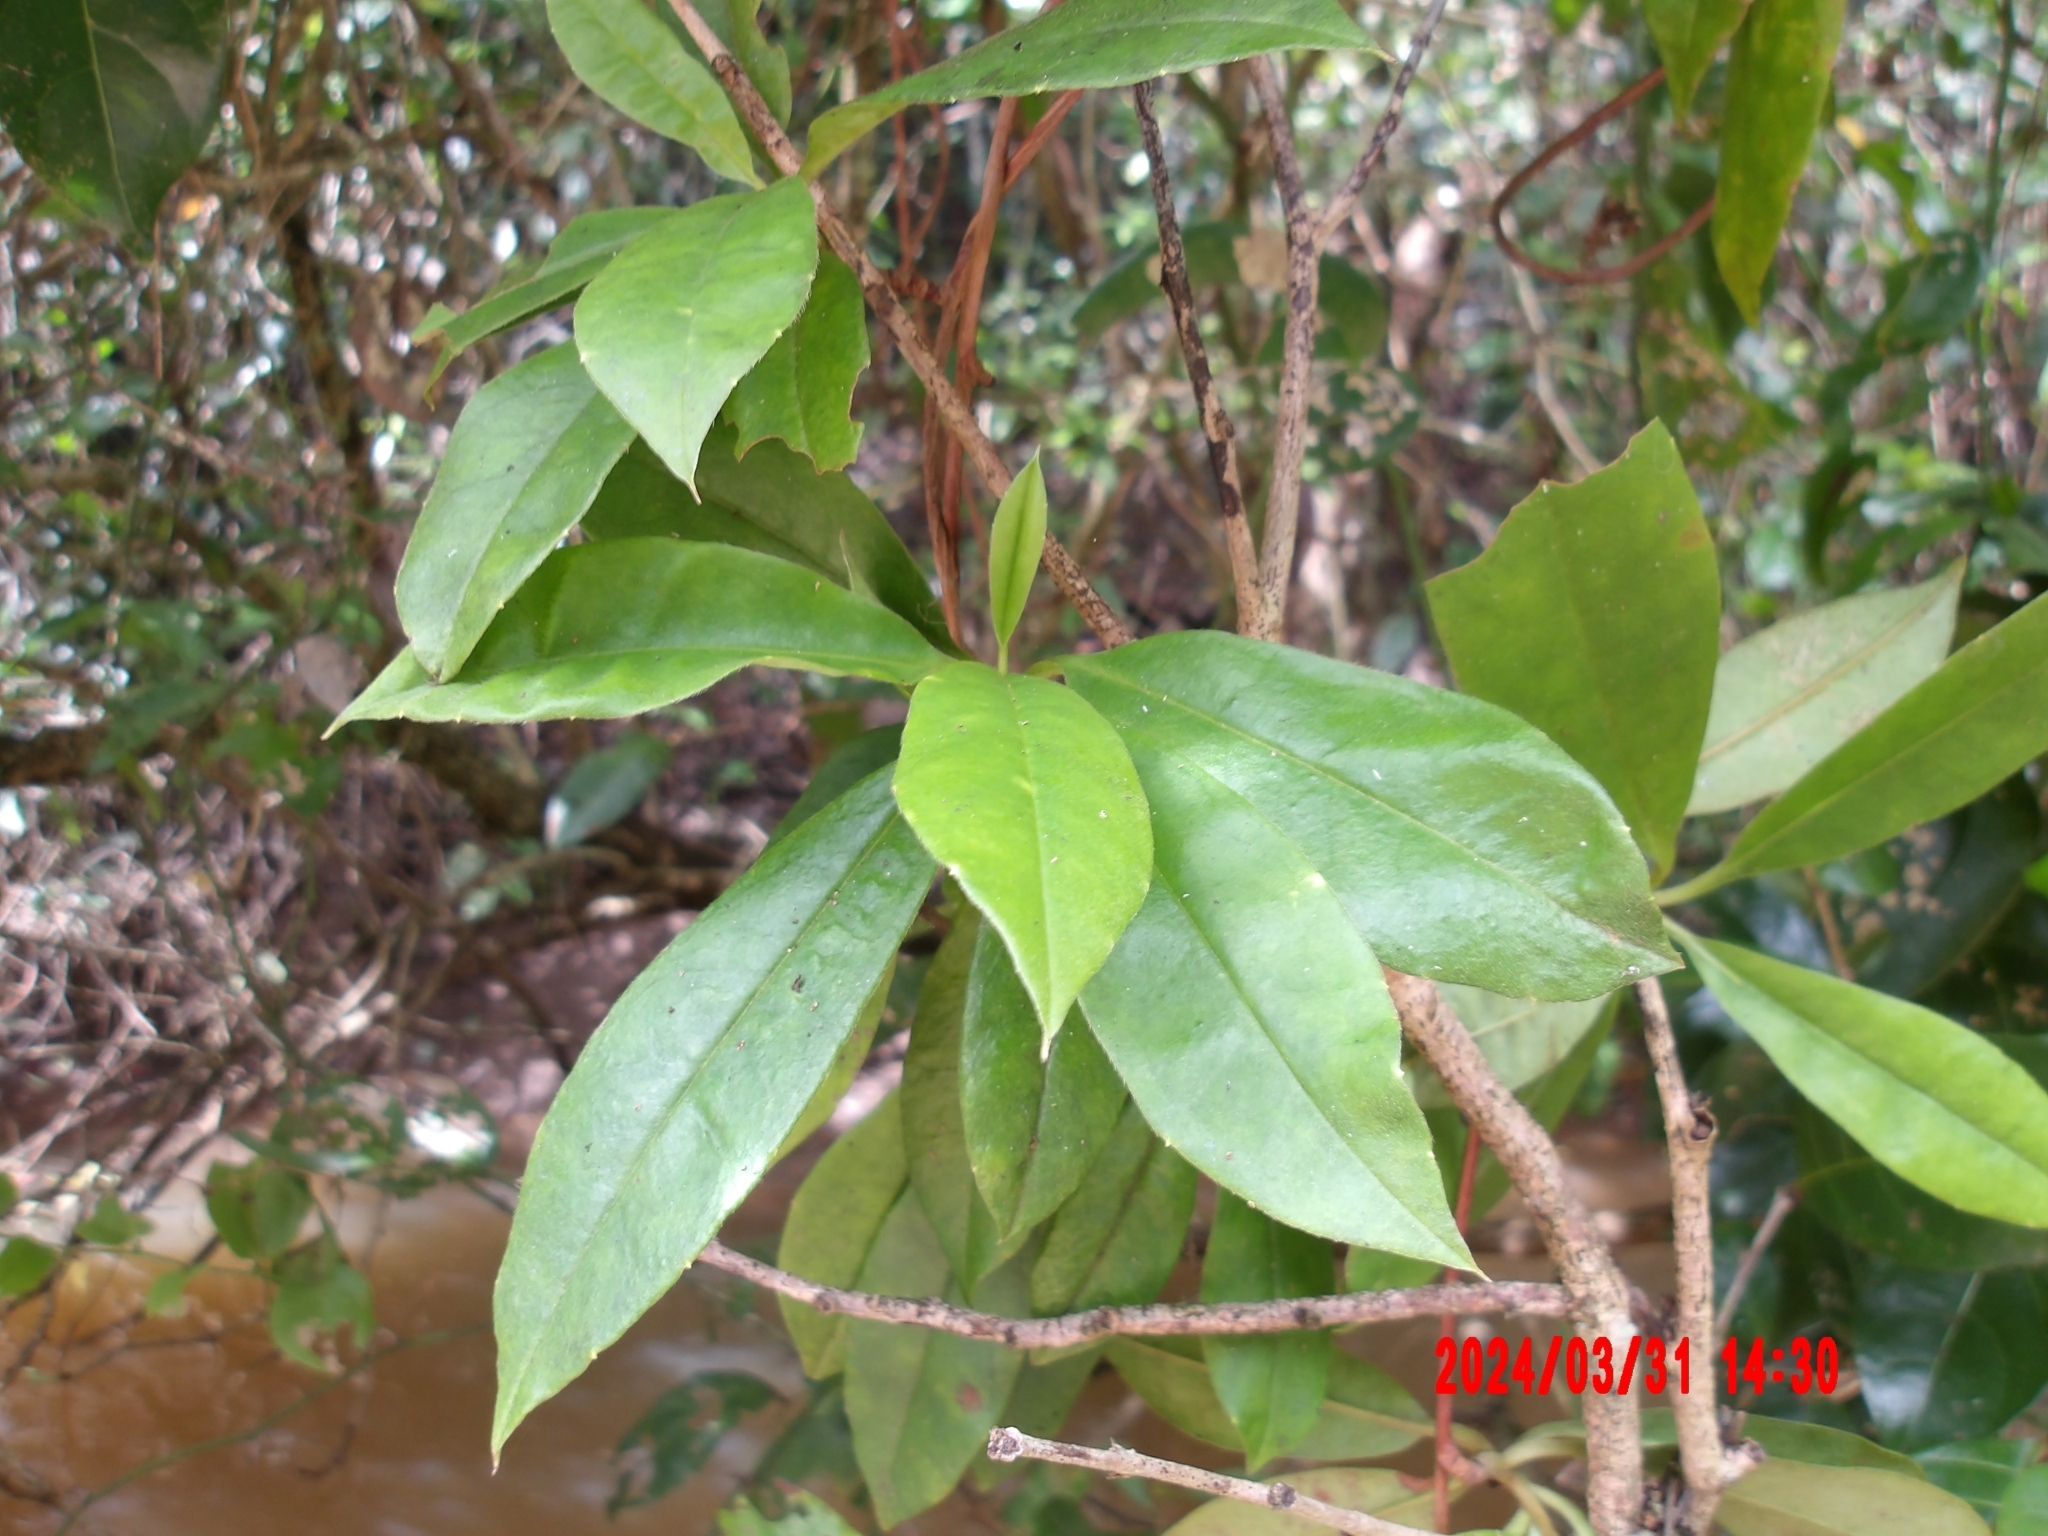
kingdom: Plantae
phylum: Tracheophyta
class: Magnoliopsida
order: Dilleniales
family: Dilleniaceae
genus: Hibbertia
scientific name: Hibbertia scandens
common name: Climbing guinea-flower
